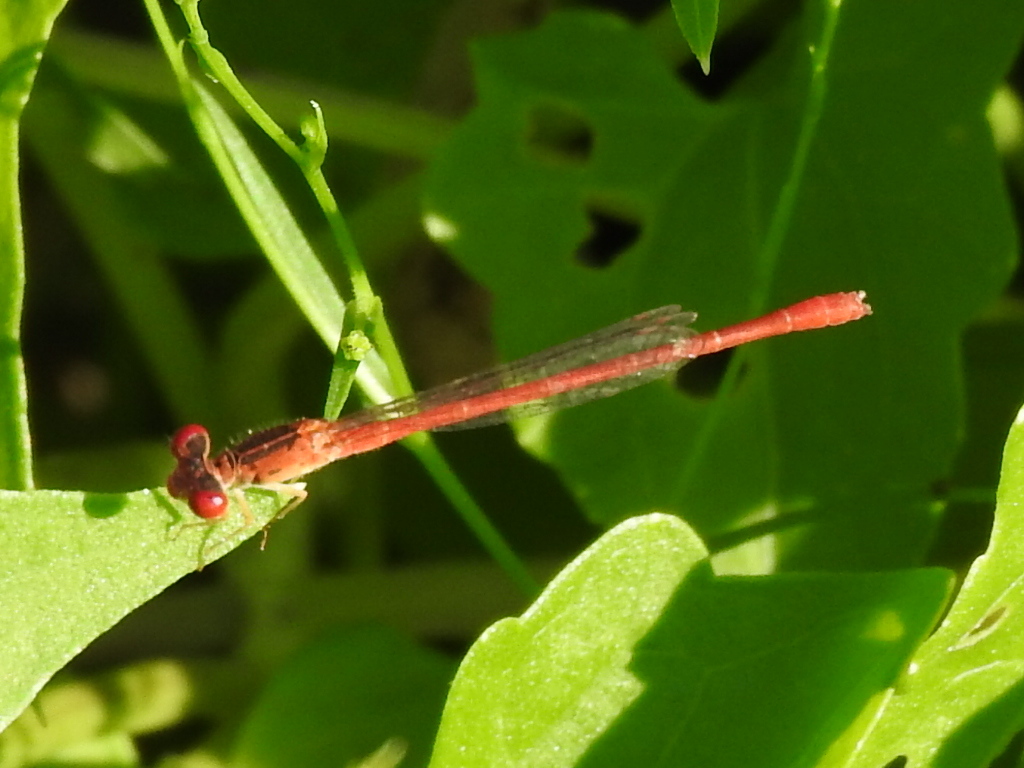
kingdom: Animalia
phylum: Arthropoda
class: Insecta
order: Odonata
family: Coenagrionidae
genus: Telebasis
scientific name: Telebasis salva
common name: Desert firetail
